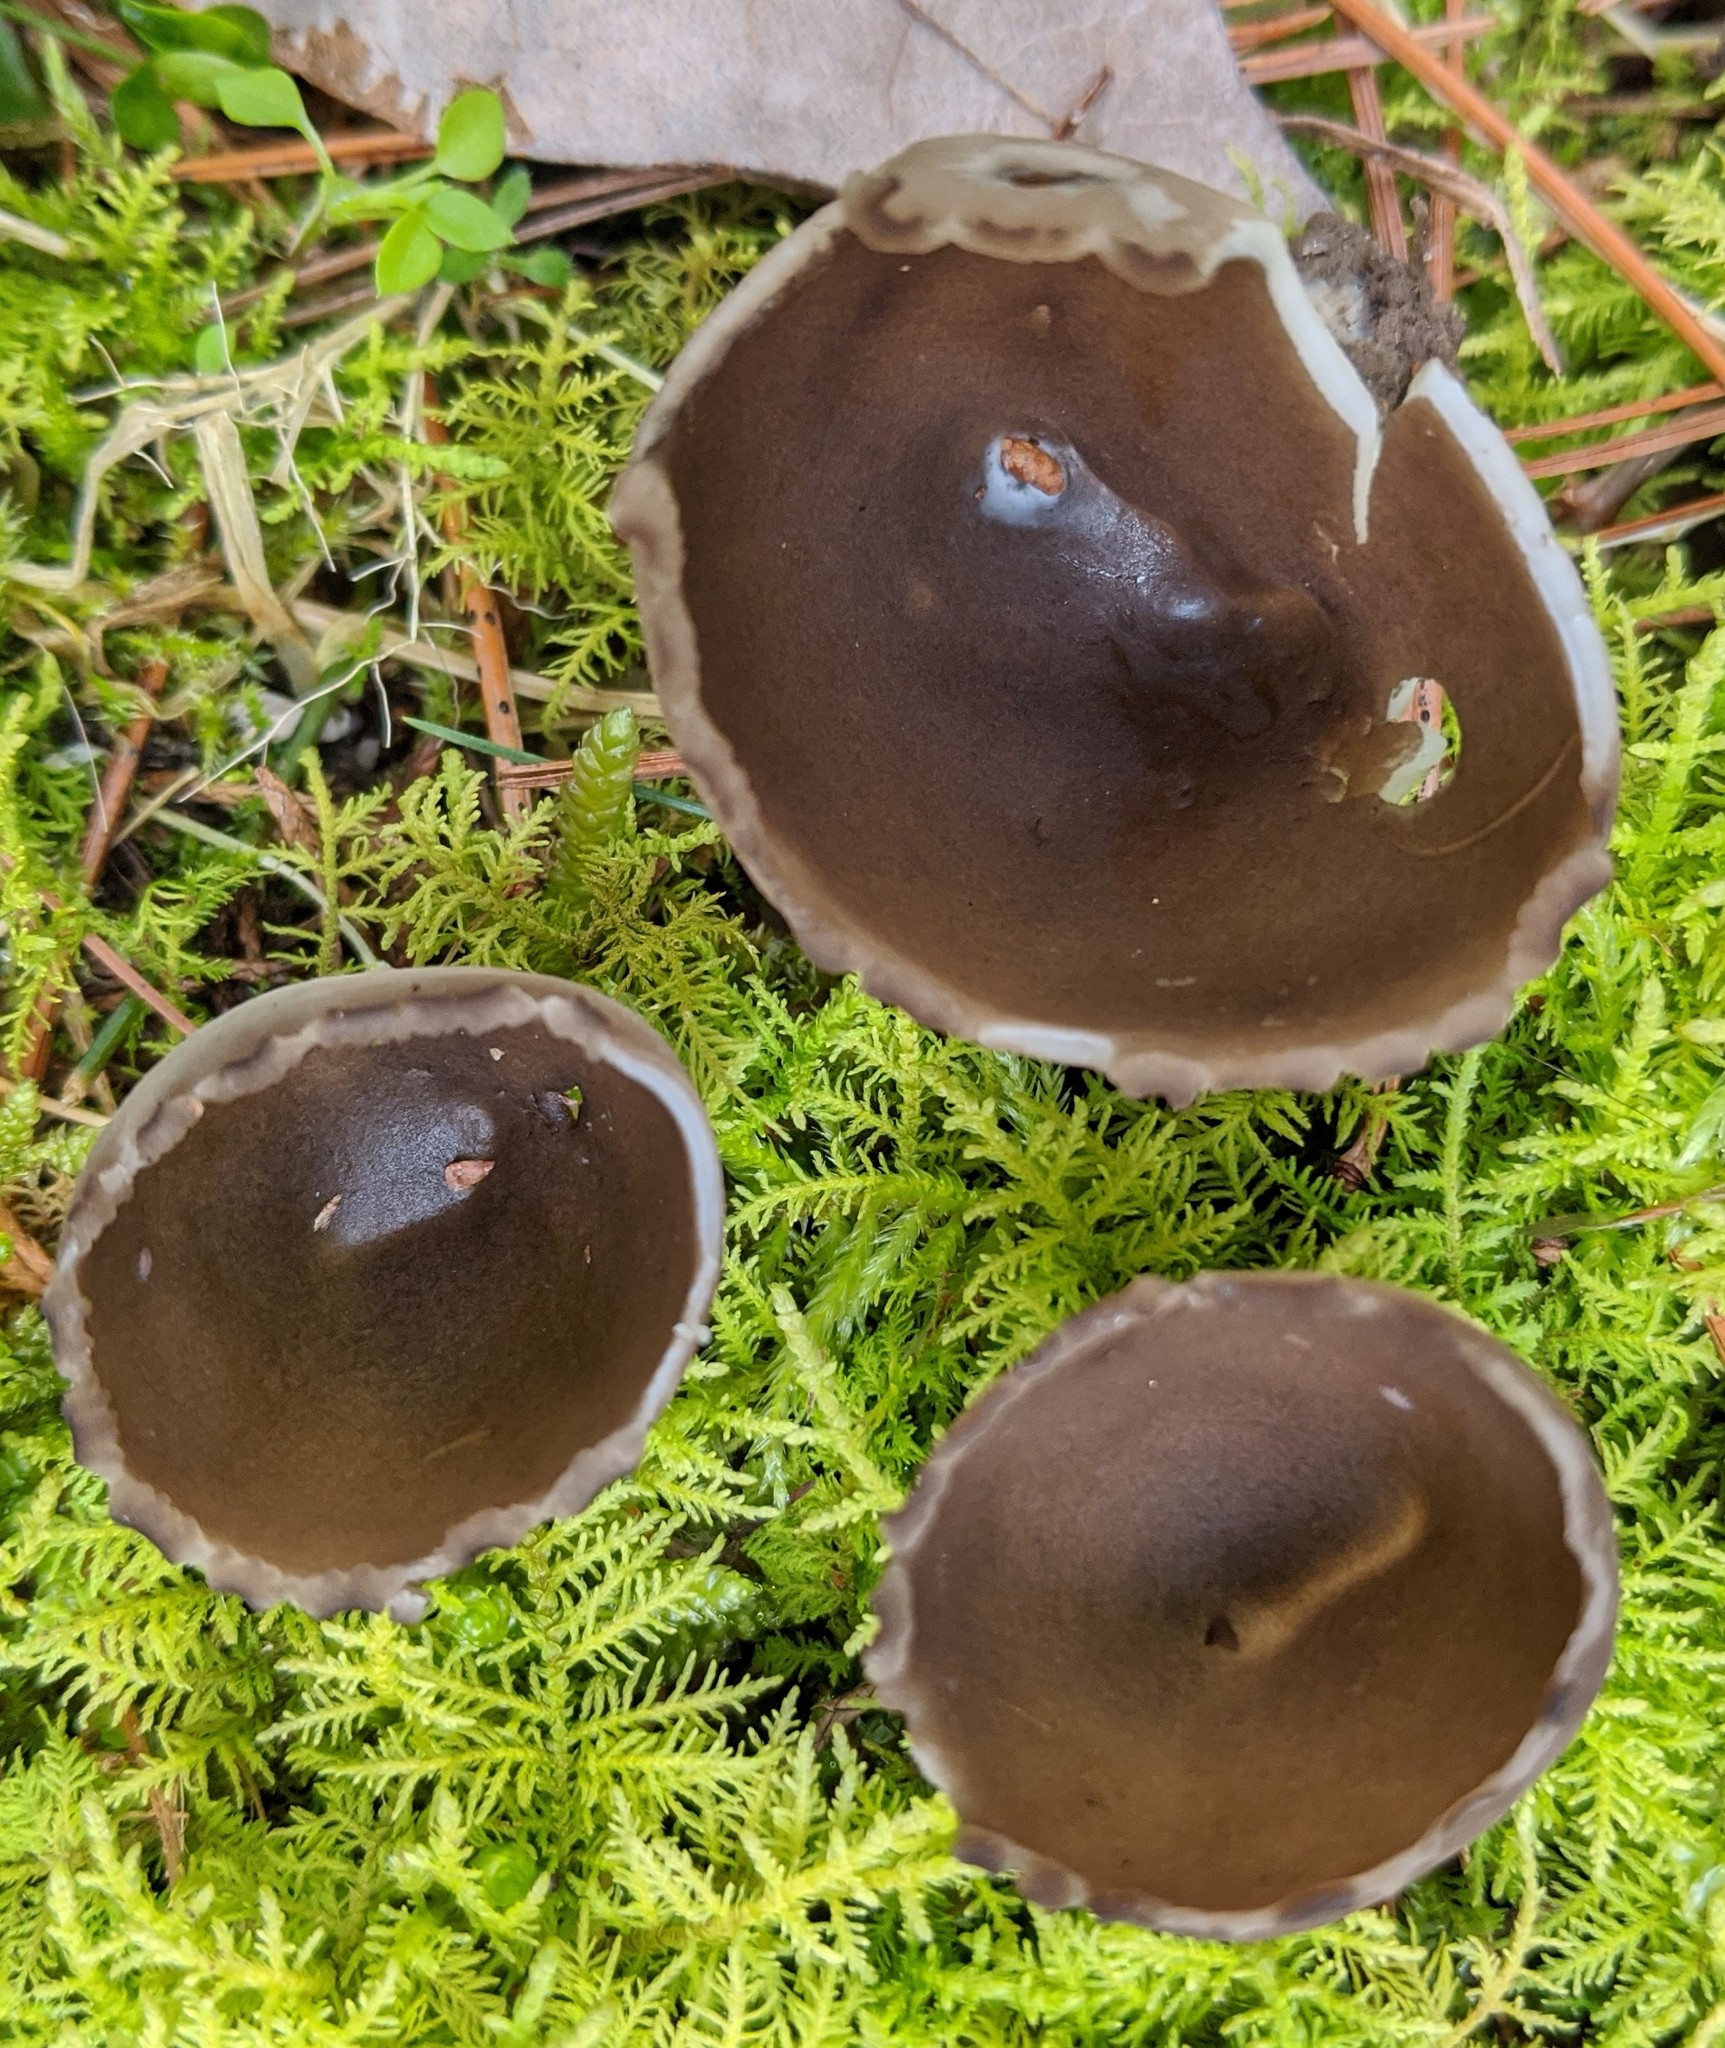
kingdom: Fungi
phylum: Ascomycota
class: Pezizomycetes
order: Pezizales
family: Helvellaceae
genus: Dissingia
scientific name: Dissingia leucomelaena
